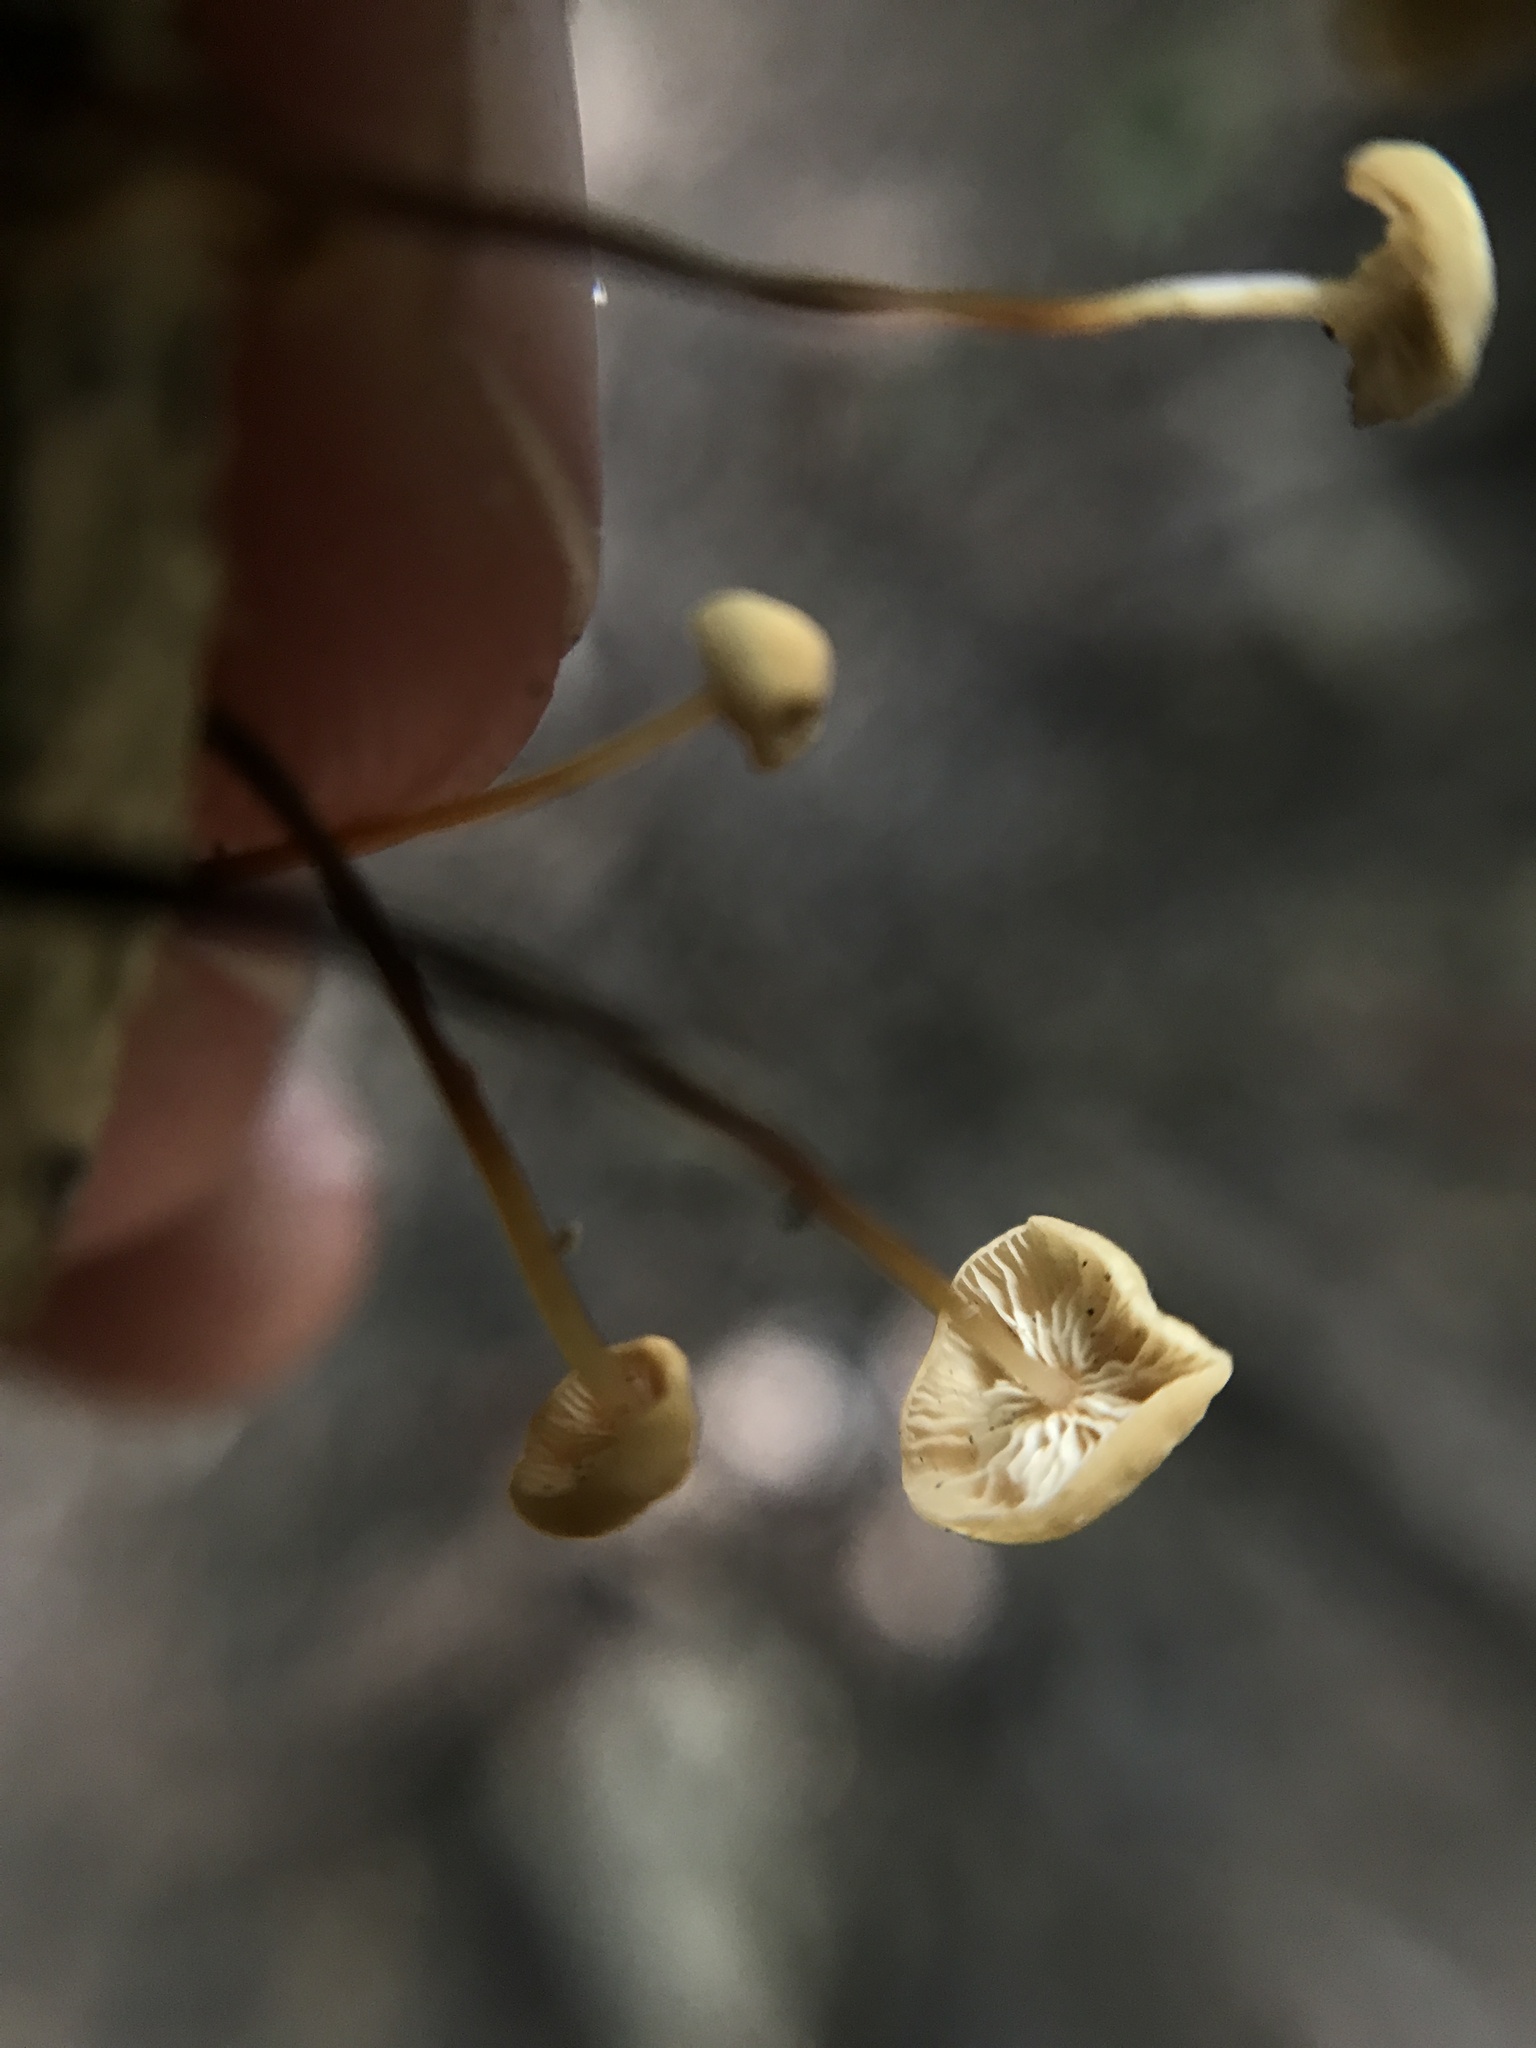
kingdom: Fungi
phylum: Basidiomycota
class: Agaricomycetes
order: Agaricales
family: Omphalotaceae
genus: Collybiopsis
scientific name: Collybiopsis quercophila
